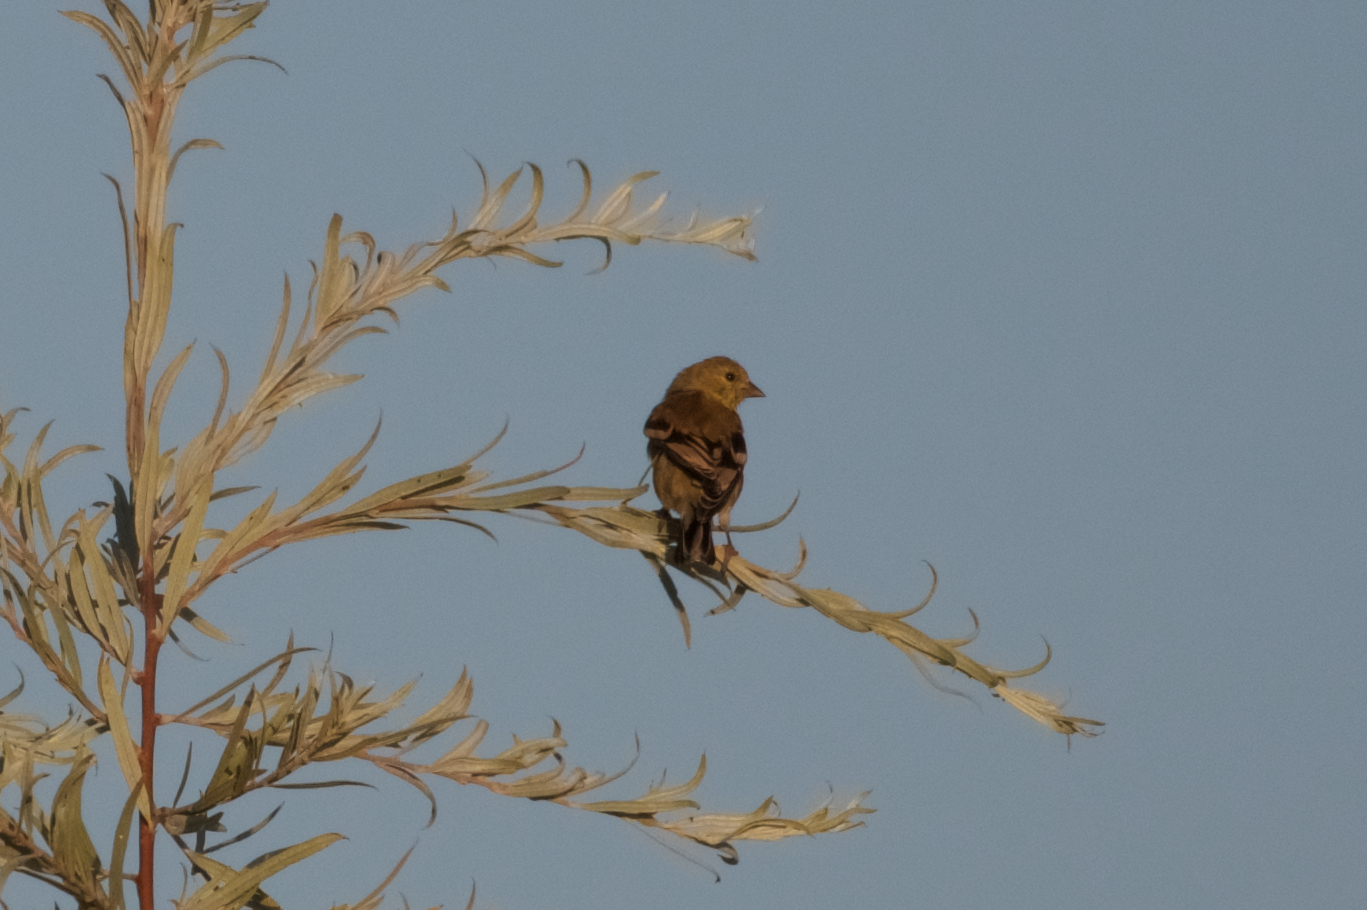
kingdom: Animalia
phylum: Chordata
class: Aves
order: Passeriformes
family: Fringillidae
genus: Spinus
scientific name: Spinus tristis
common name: American goldfinch
